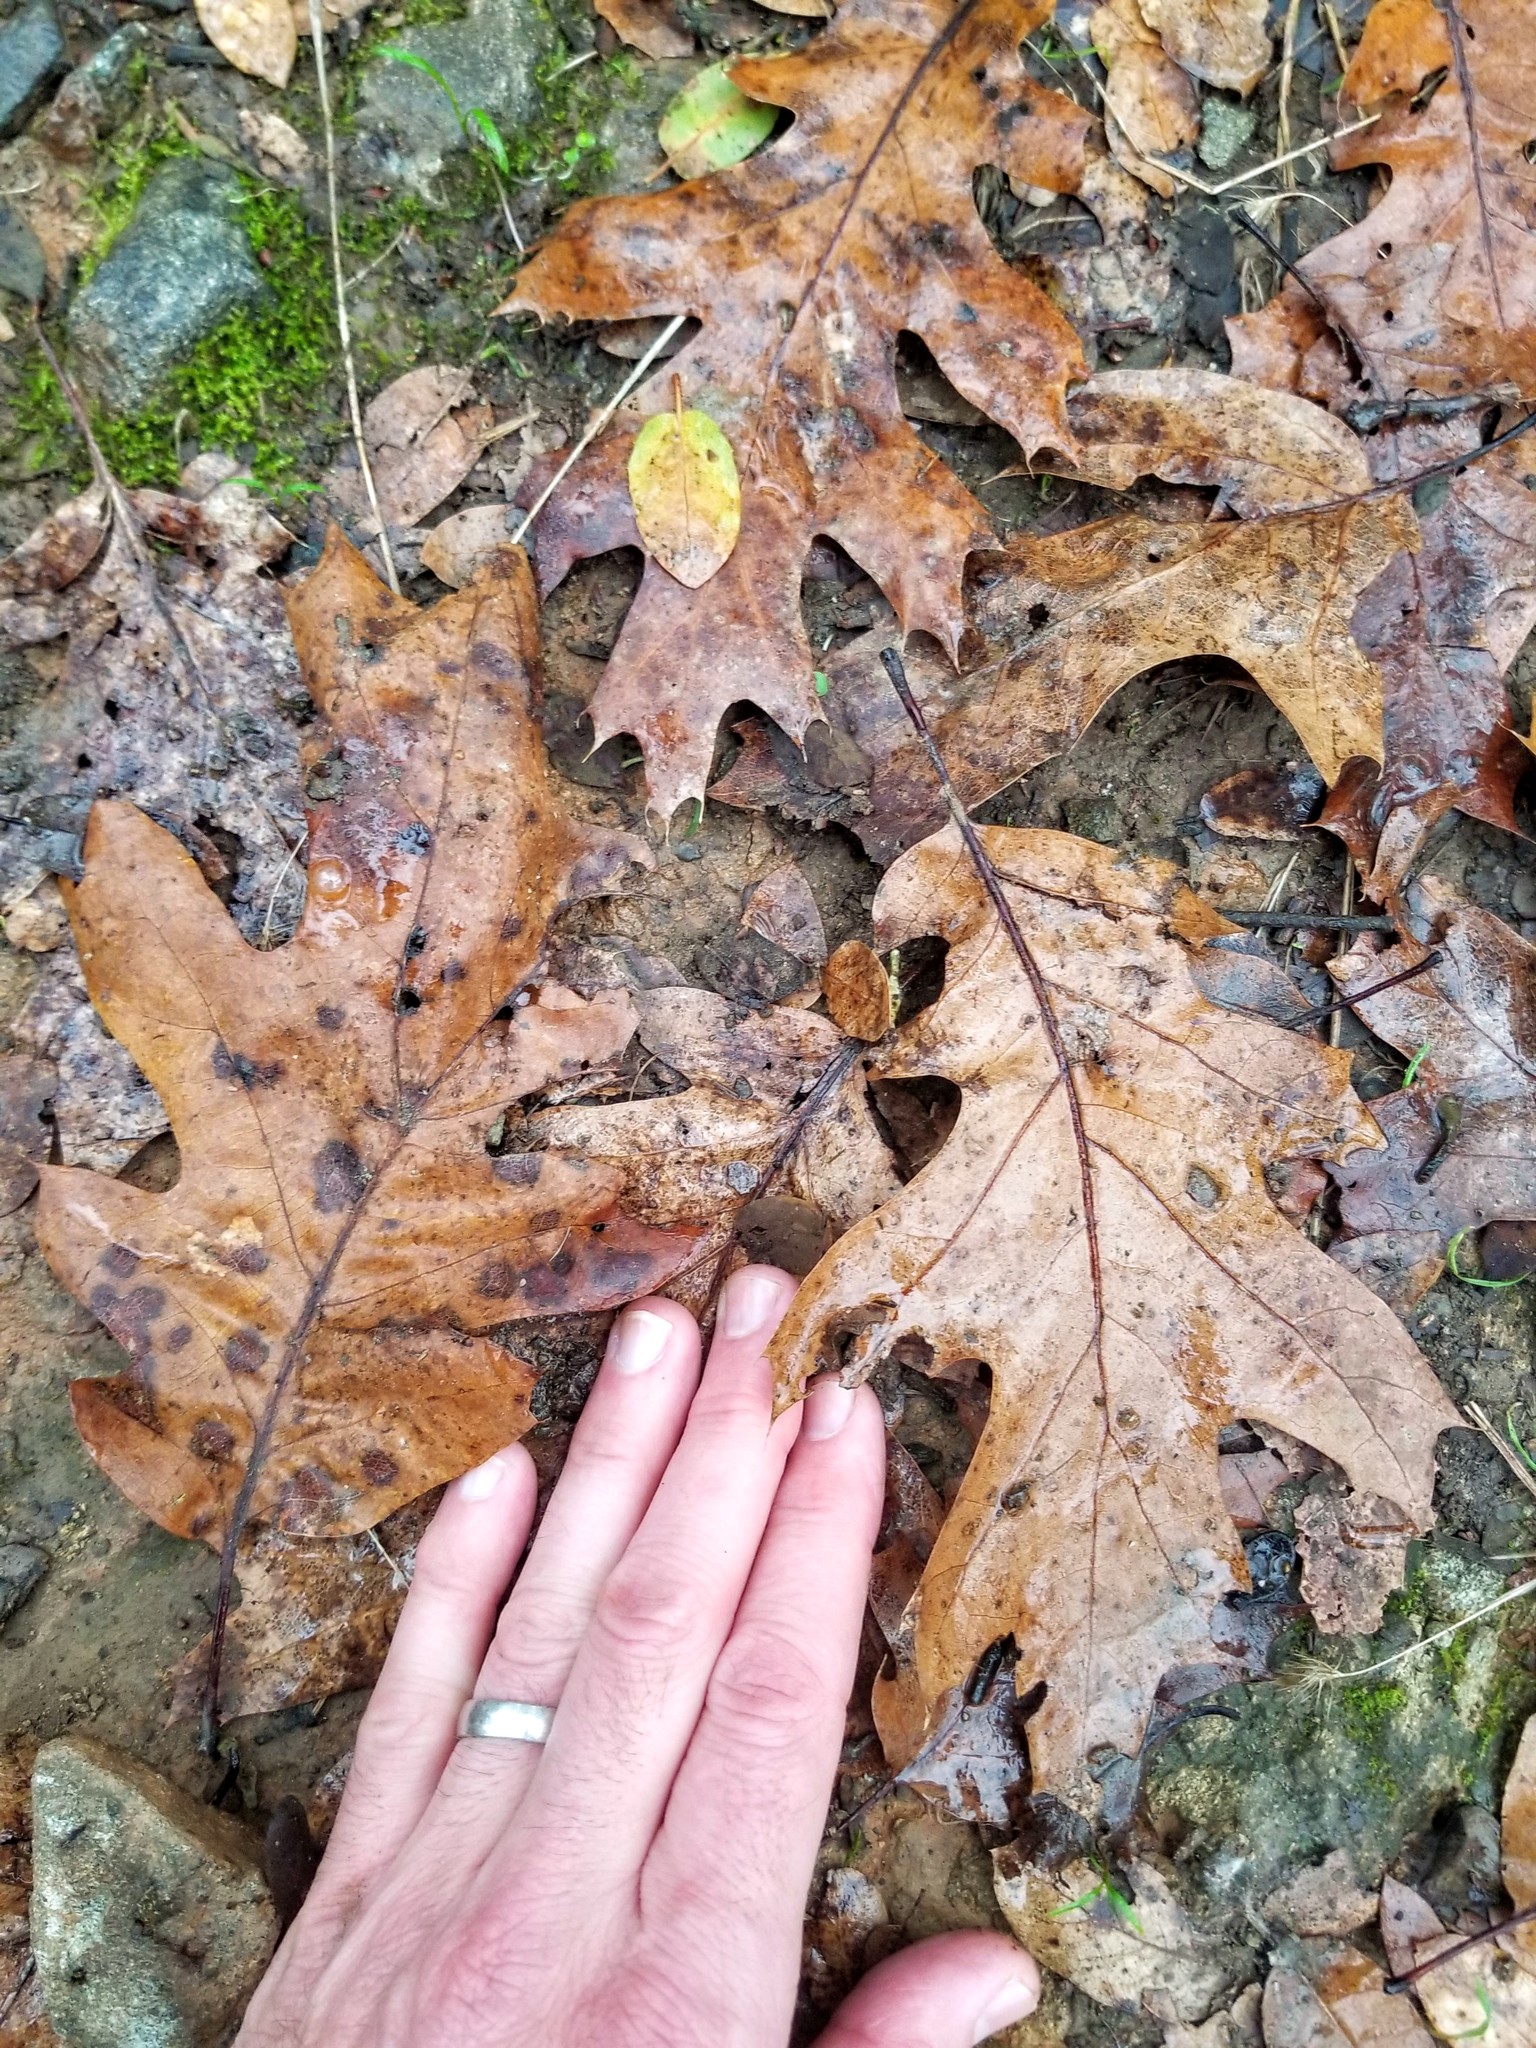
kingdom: Plantae
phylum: Tracheophyta
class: Magnoliopsida
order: Fagales
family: Fagaceae
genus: Quercus
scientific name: Quercus kelloggii
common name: California black oak
